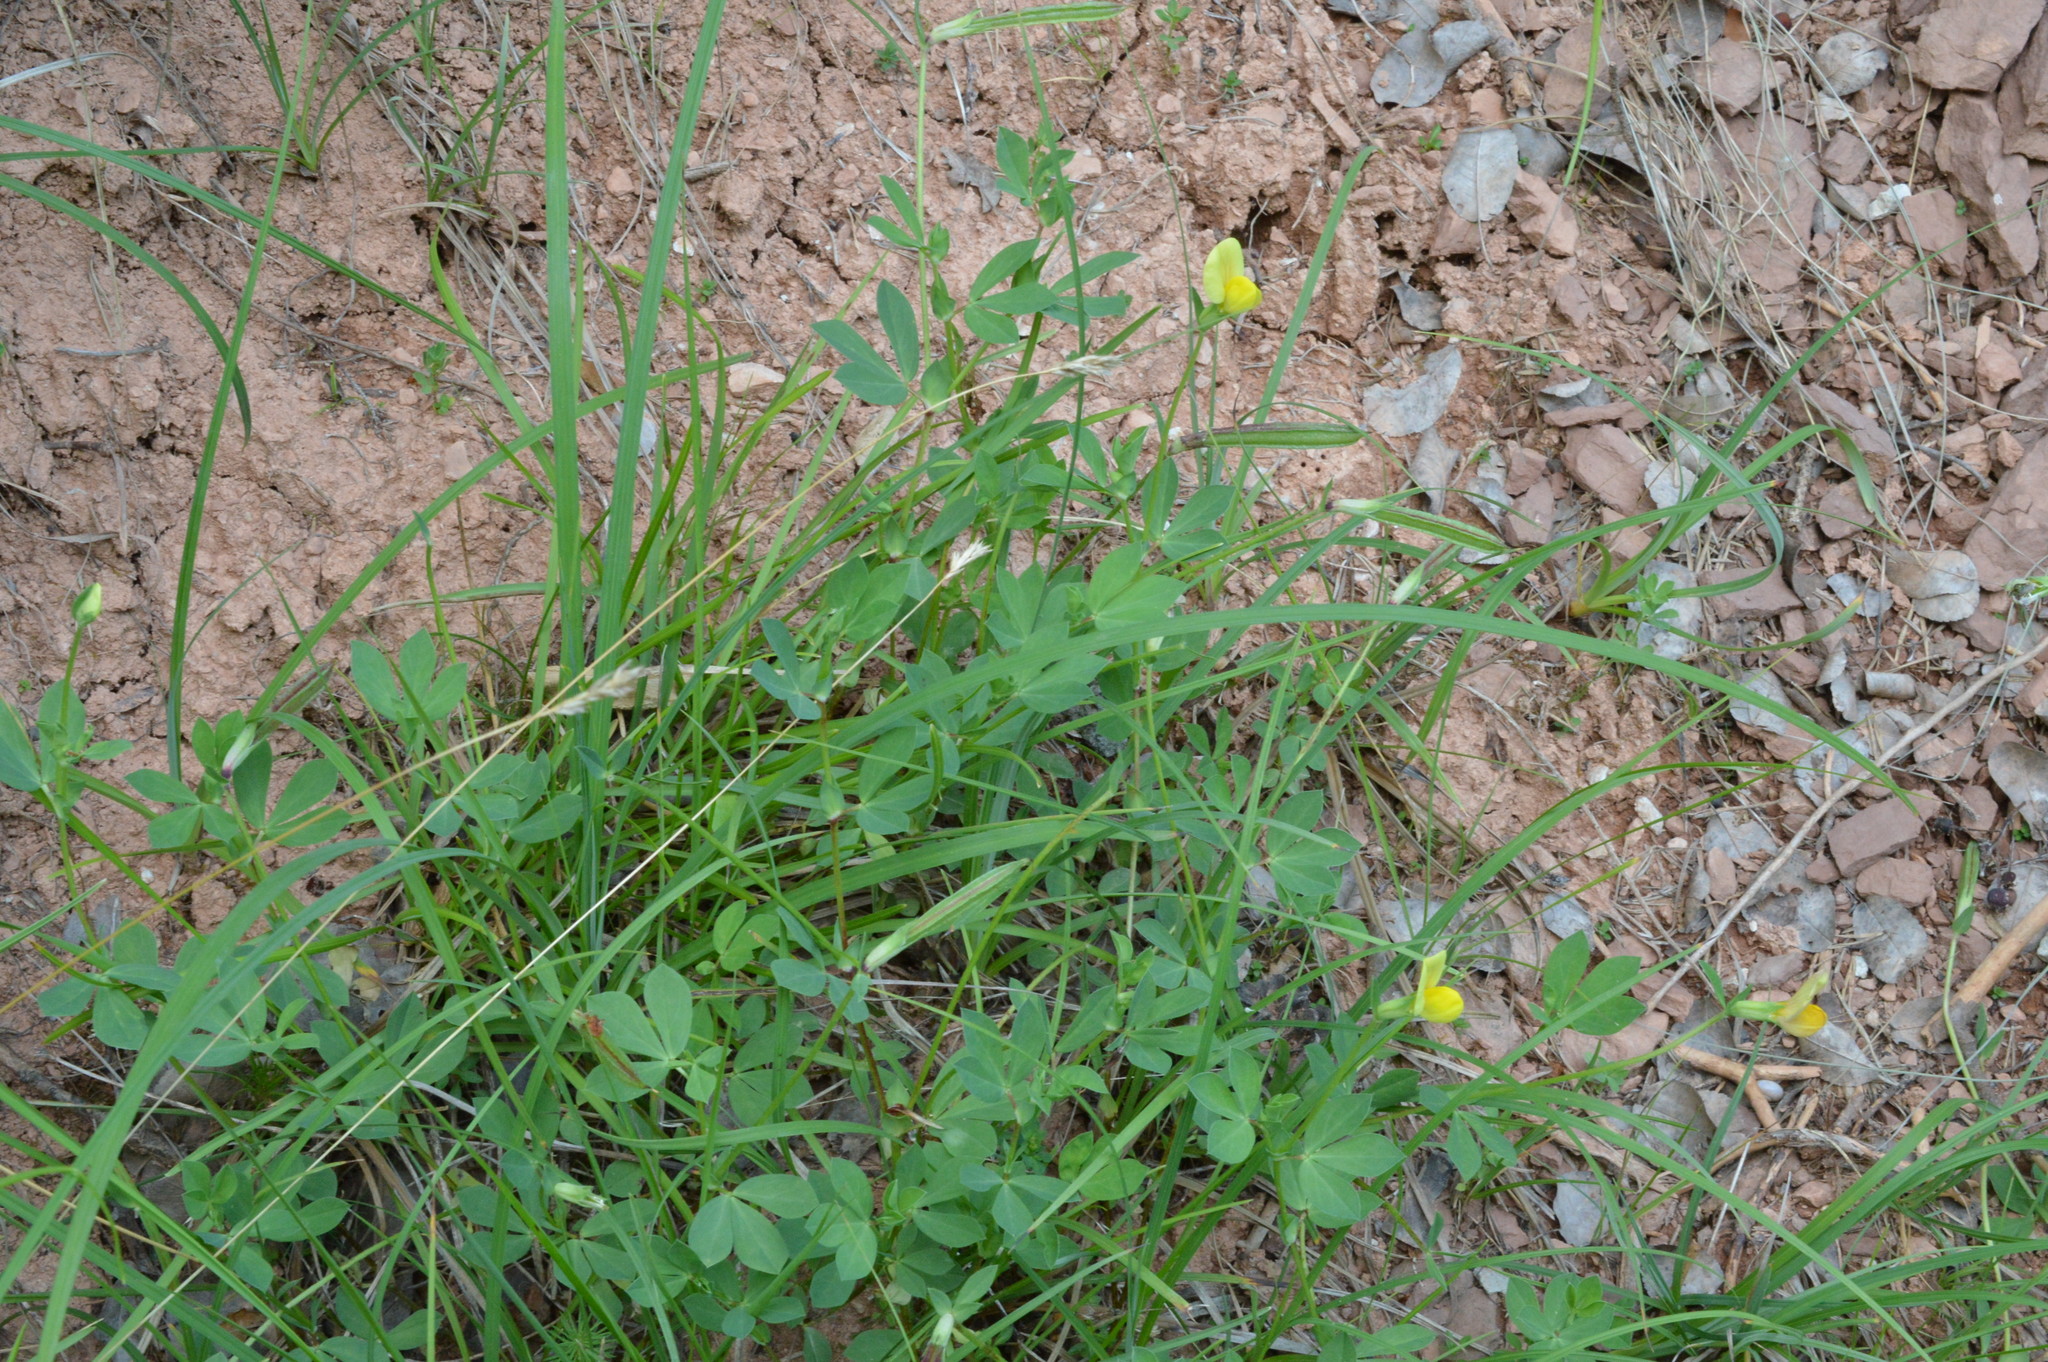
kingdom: Plantae
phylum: Tracheophyta
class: Magnoliopsida
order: Fabales
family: Fabaceae
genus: Lotus
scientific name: Lotus maritimus
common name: Dragon's-teeth
